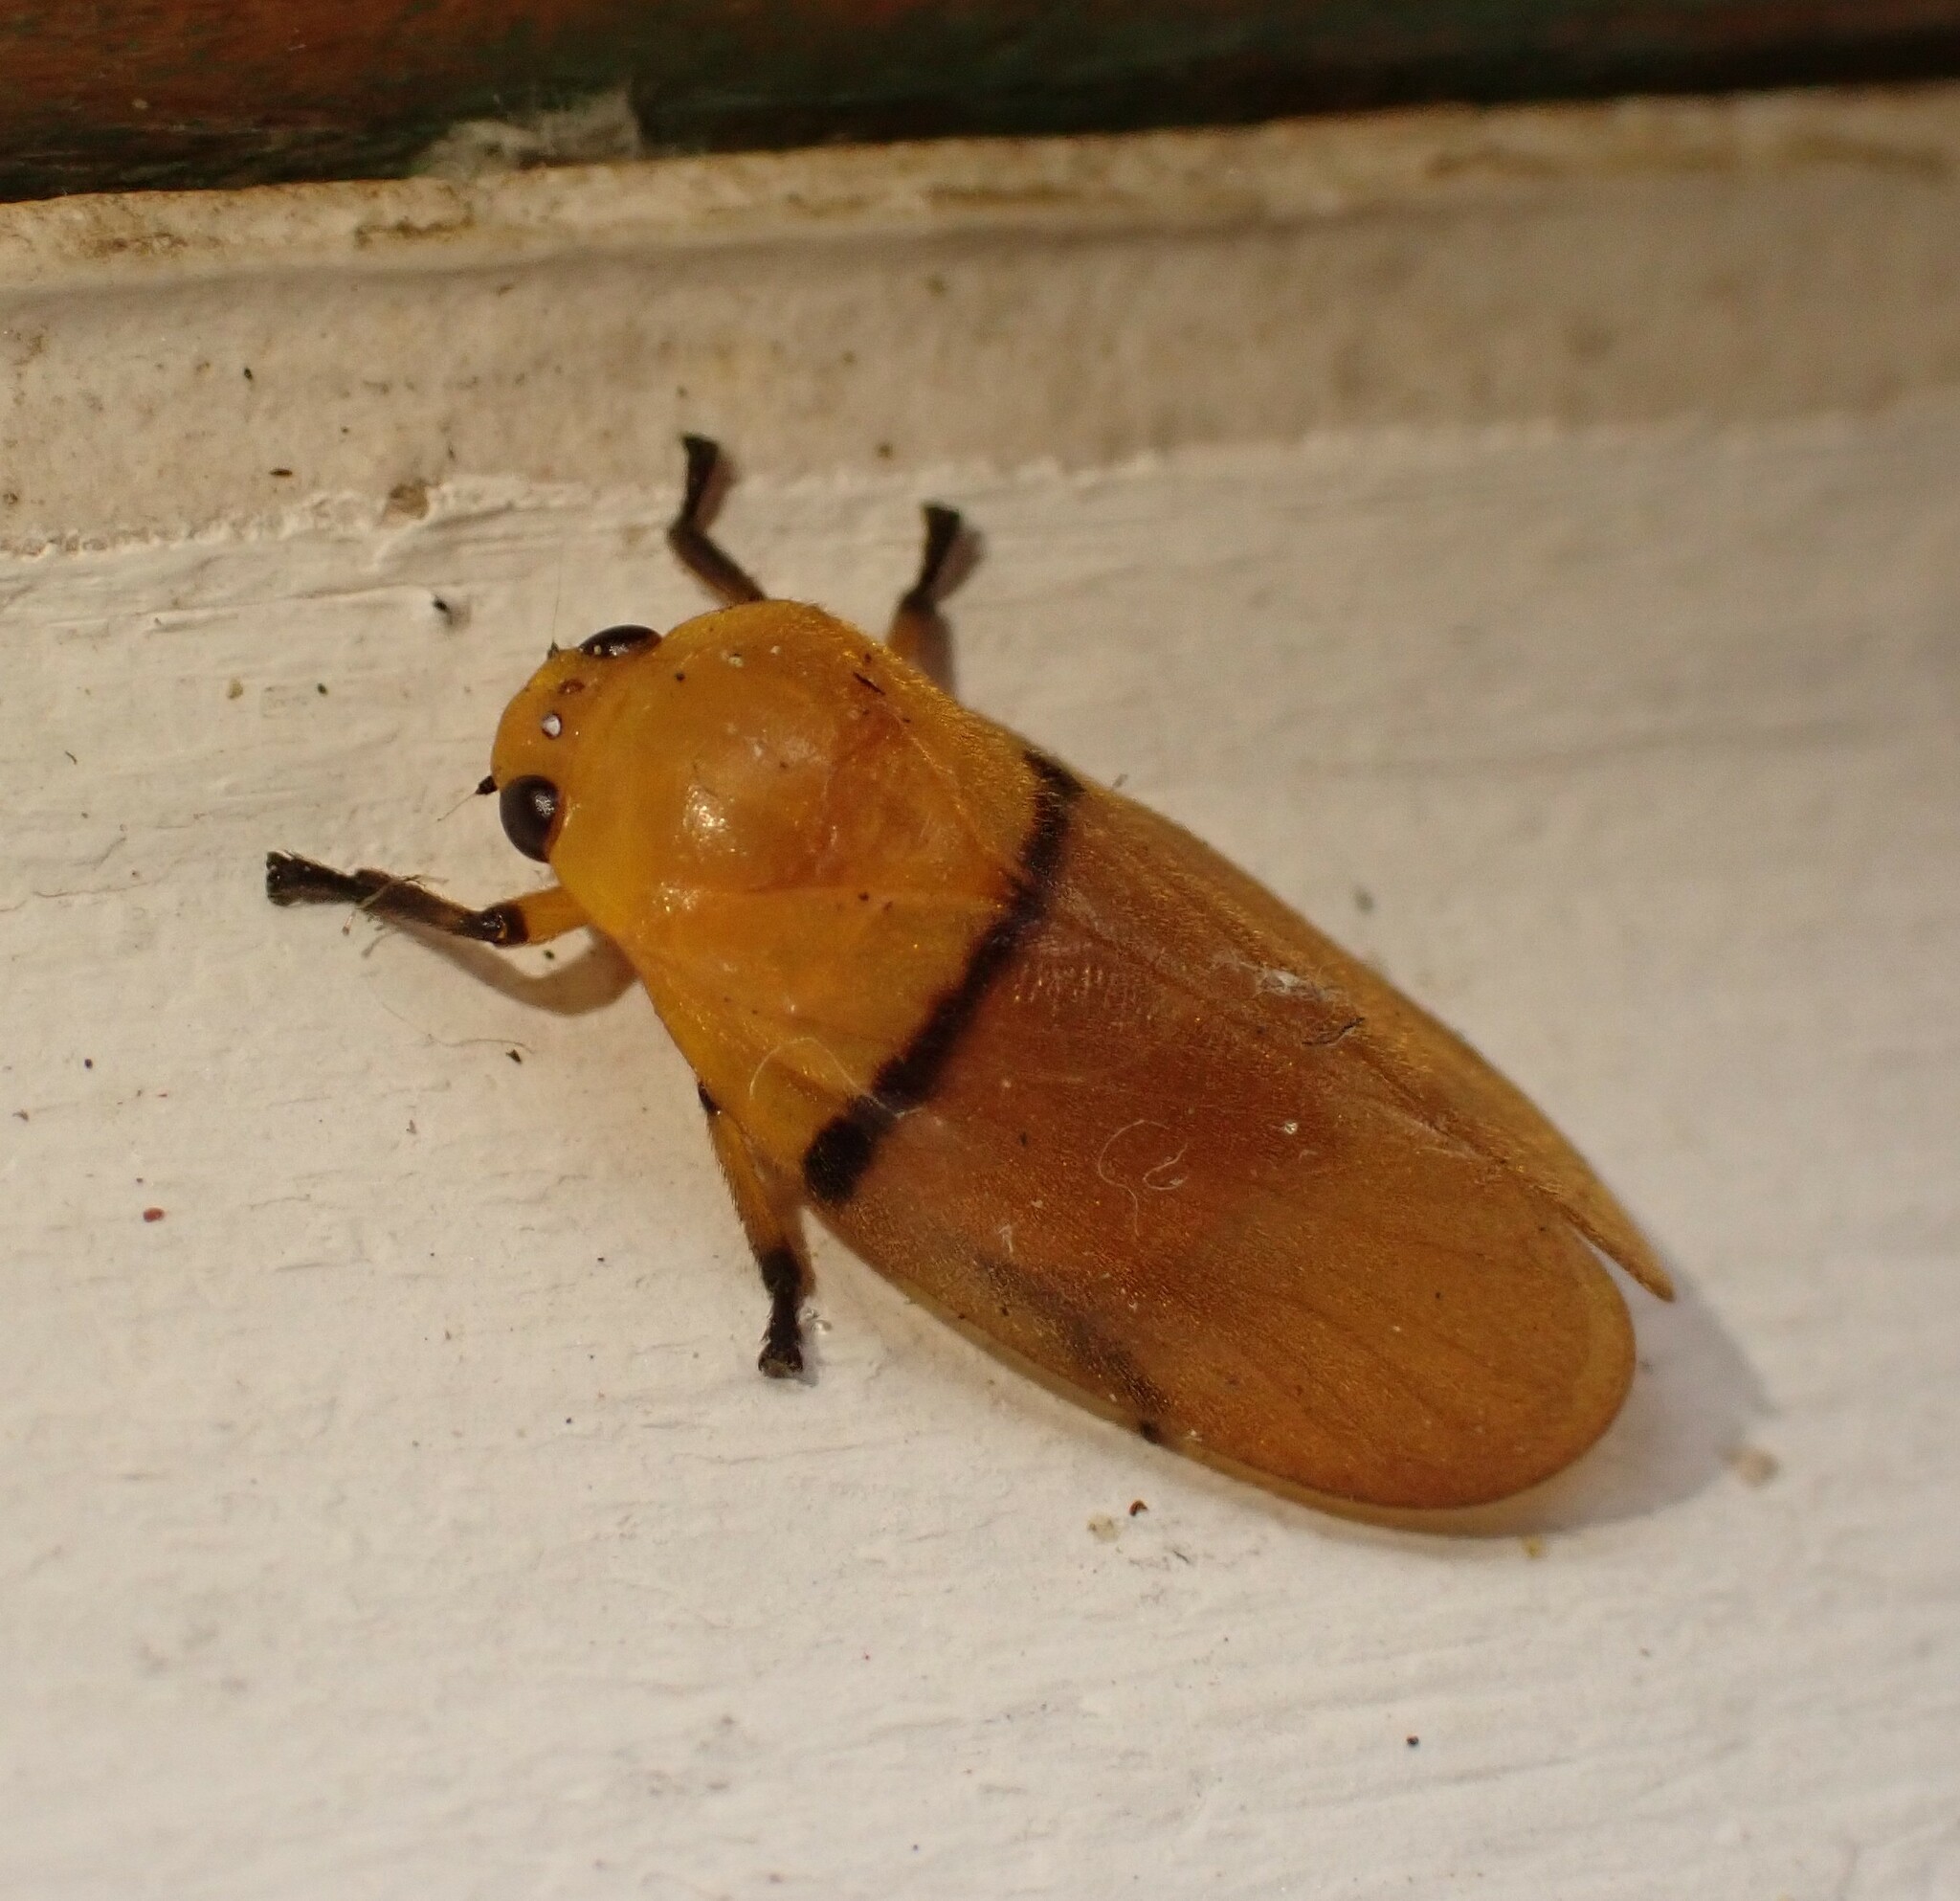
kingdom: Animalia
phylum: Arthropoda
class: Insecta
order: Hemiptera
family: Cercopidae
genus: Monecphora
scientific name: Monecphora cingulata
